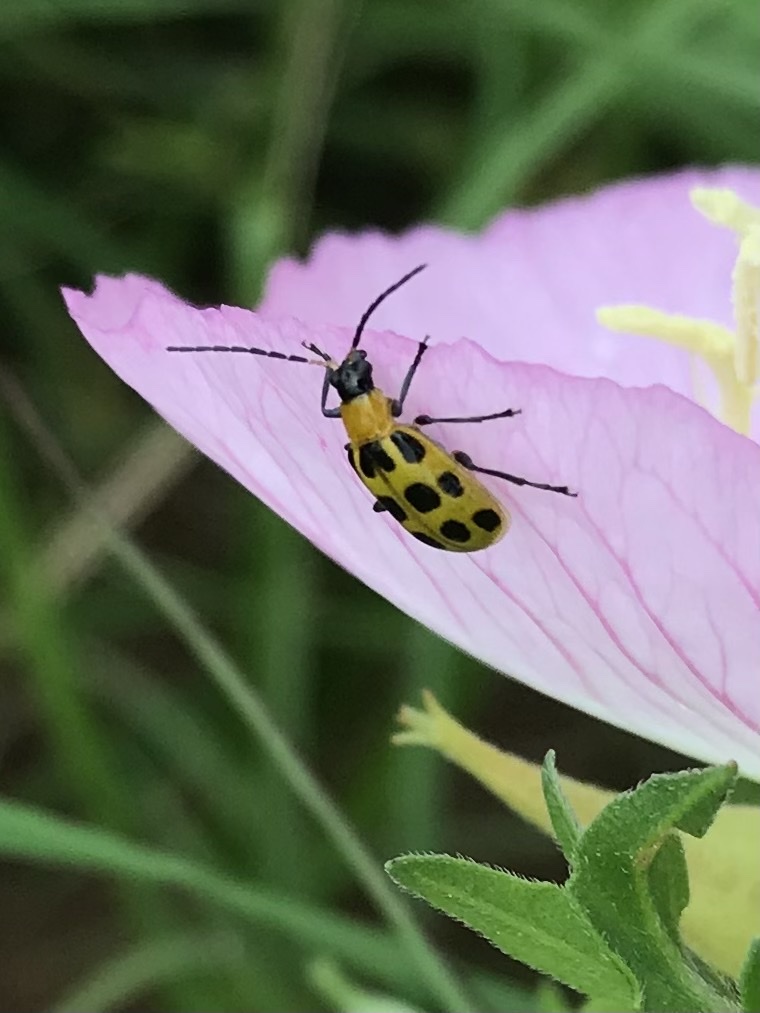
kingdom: Animalia
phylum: Arthropoda
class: Insecta
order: Coleoptera
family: Chrysomelidae
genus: Diabrotica
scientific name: Diabrotica undecimpunctata
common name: Spotted cucumber beetle
